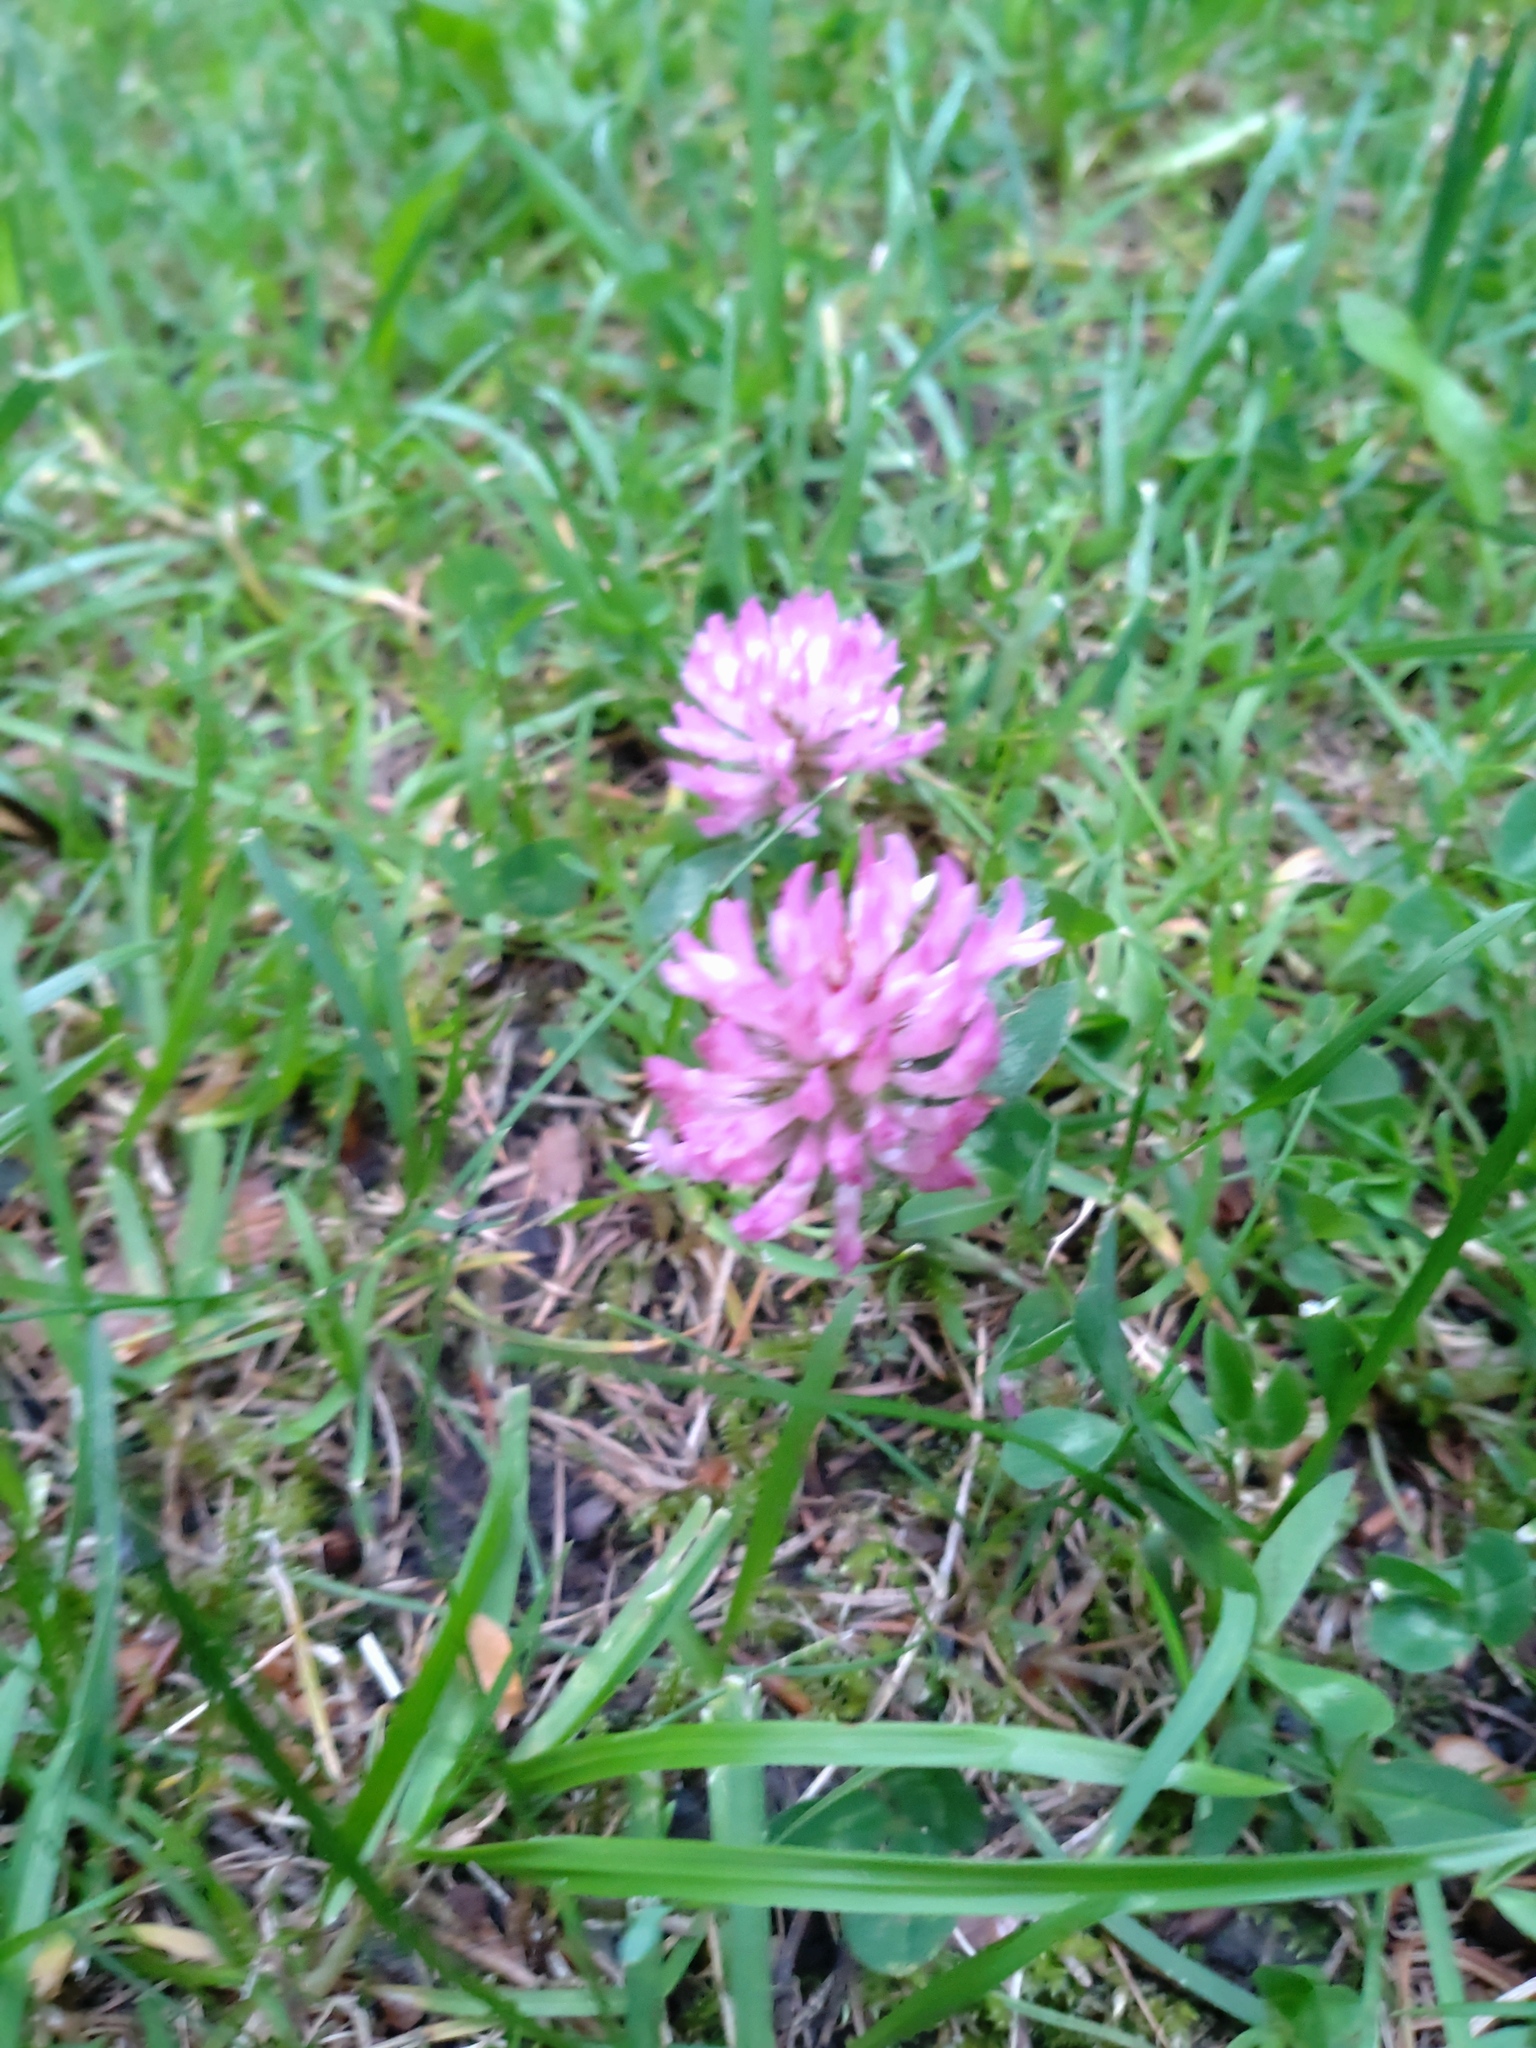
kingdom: Plantae
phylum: Tracheophyta
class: Magnoliopsida
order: Fabales
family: Fabaceae
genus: Trifolium
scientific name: Trifolium pratense
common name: Red clover
